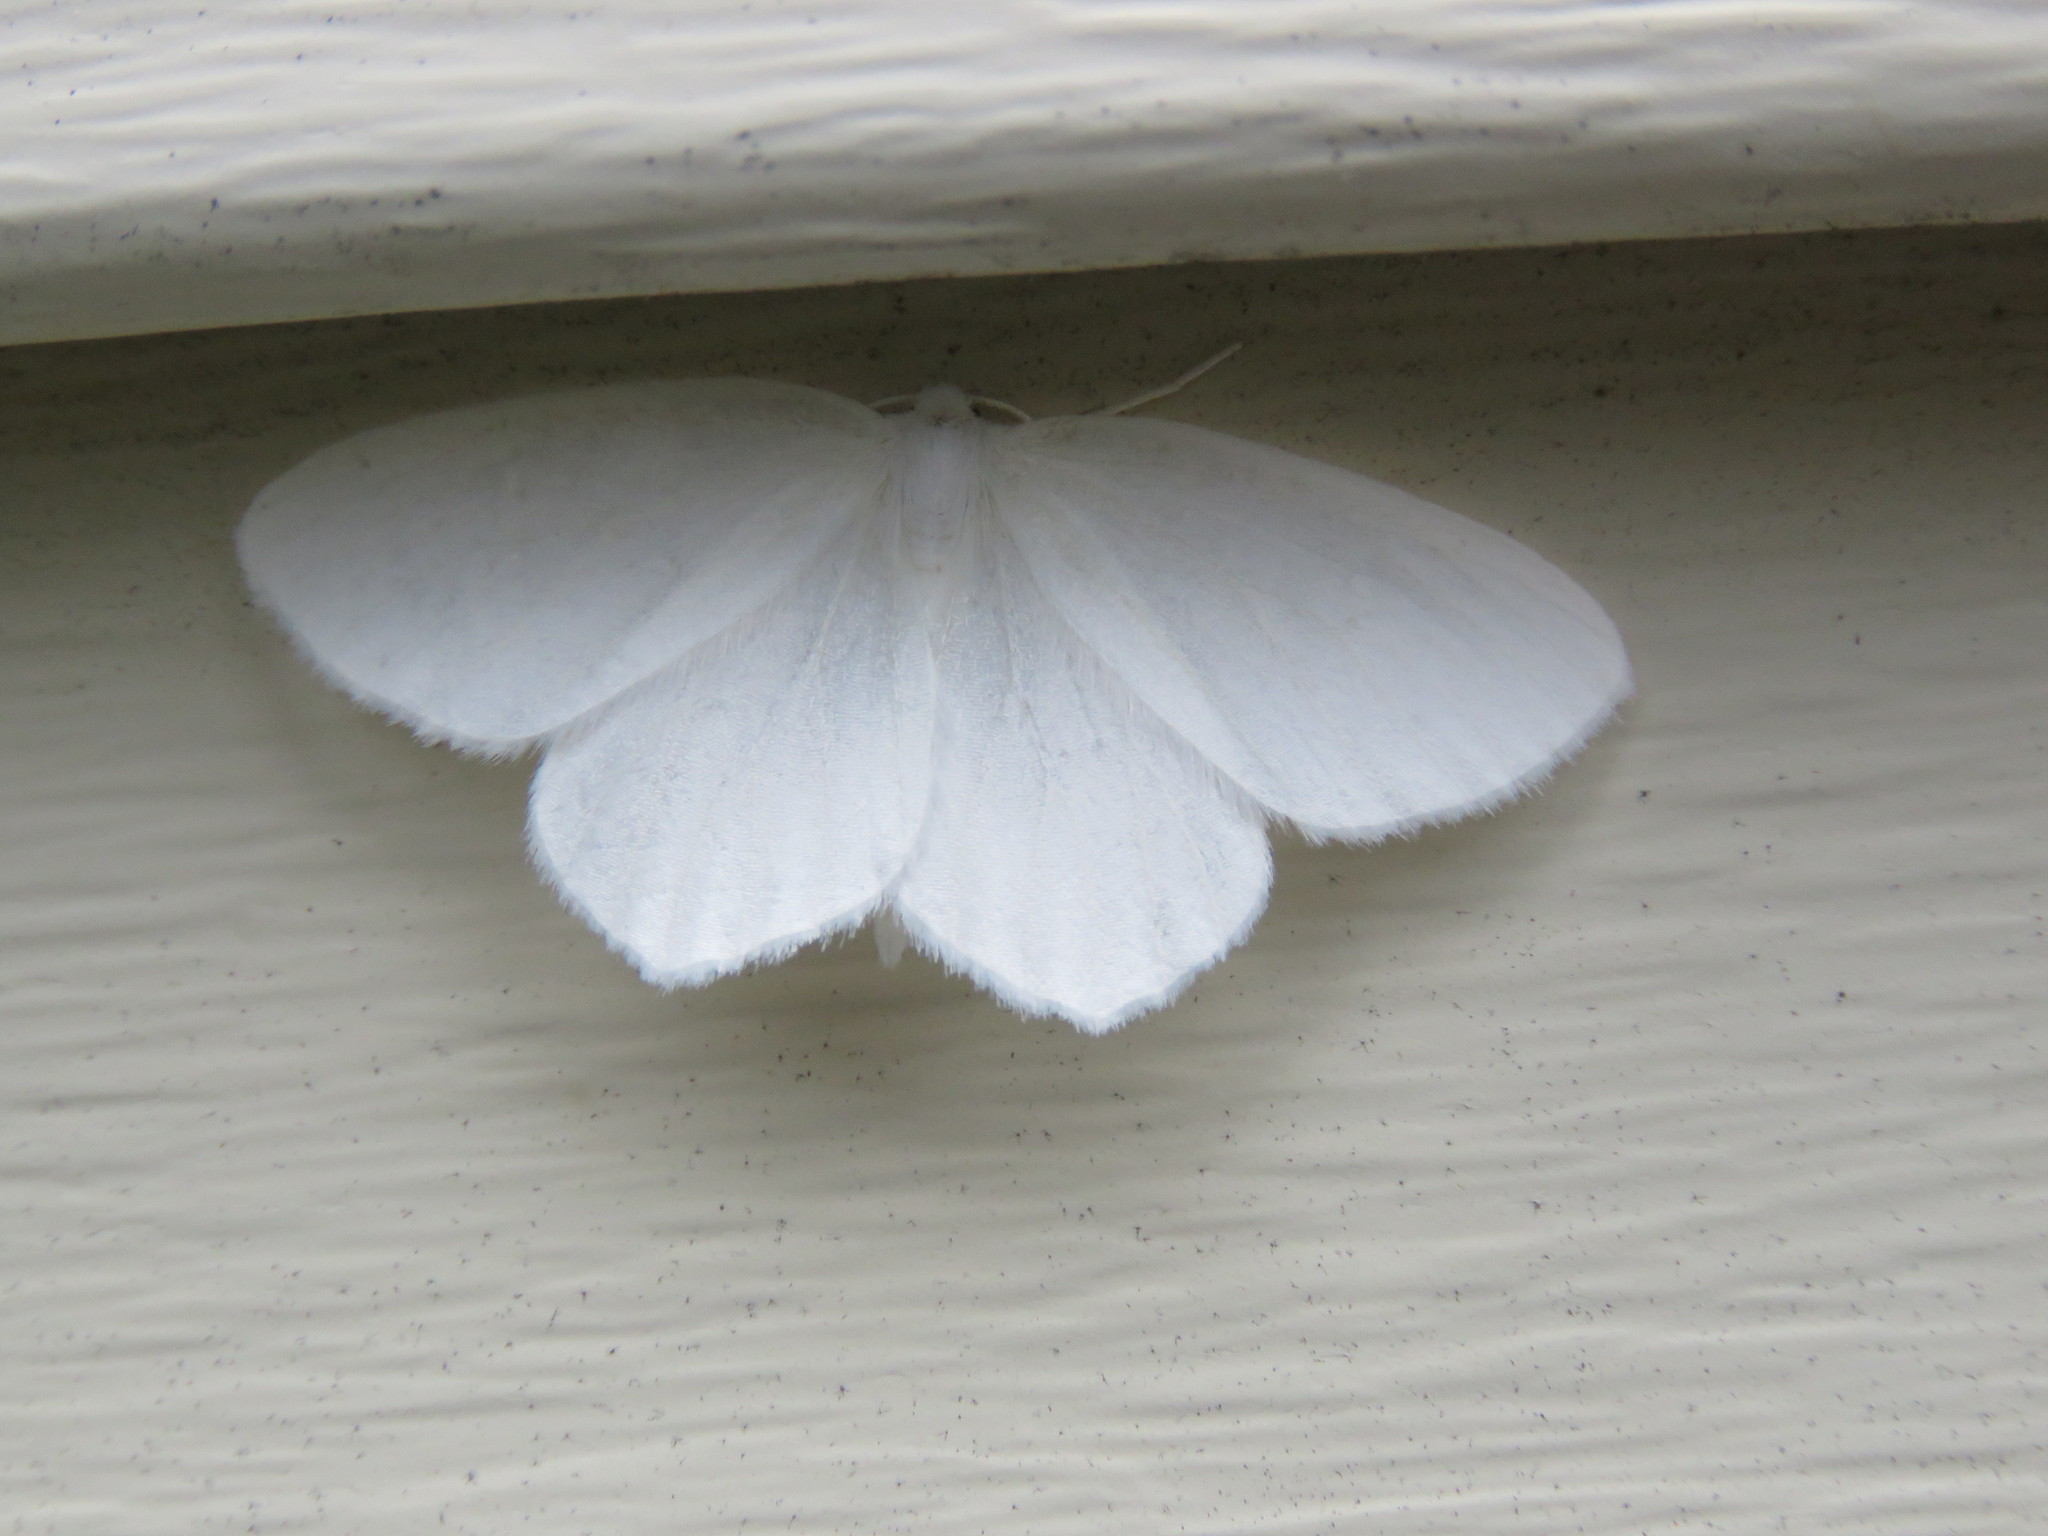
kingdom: Animalia
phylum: Arthropoda
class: Insecta
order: Lepidoptera
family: Geometridae
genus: Eugonobapta
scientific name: Eugonobapta nivosaria
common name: Snowy geometer
